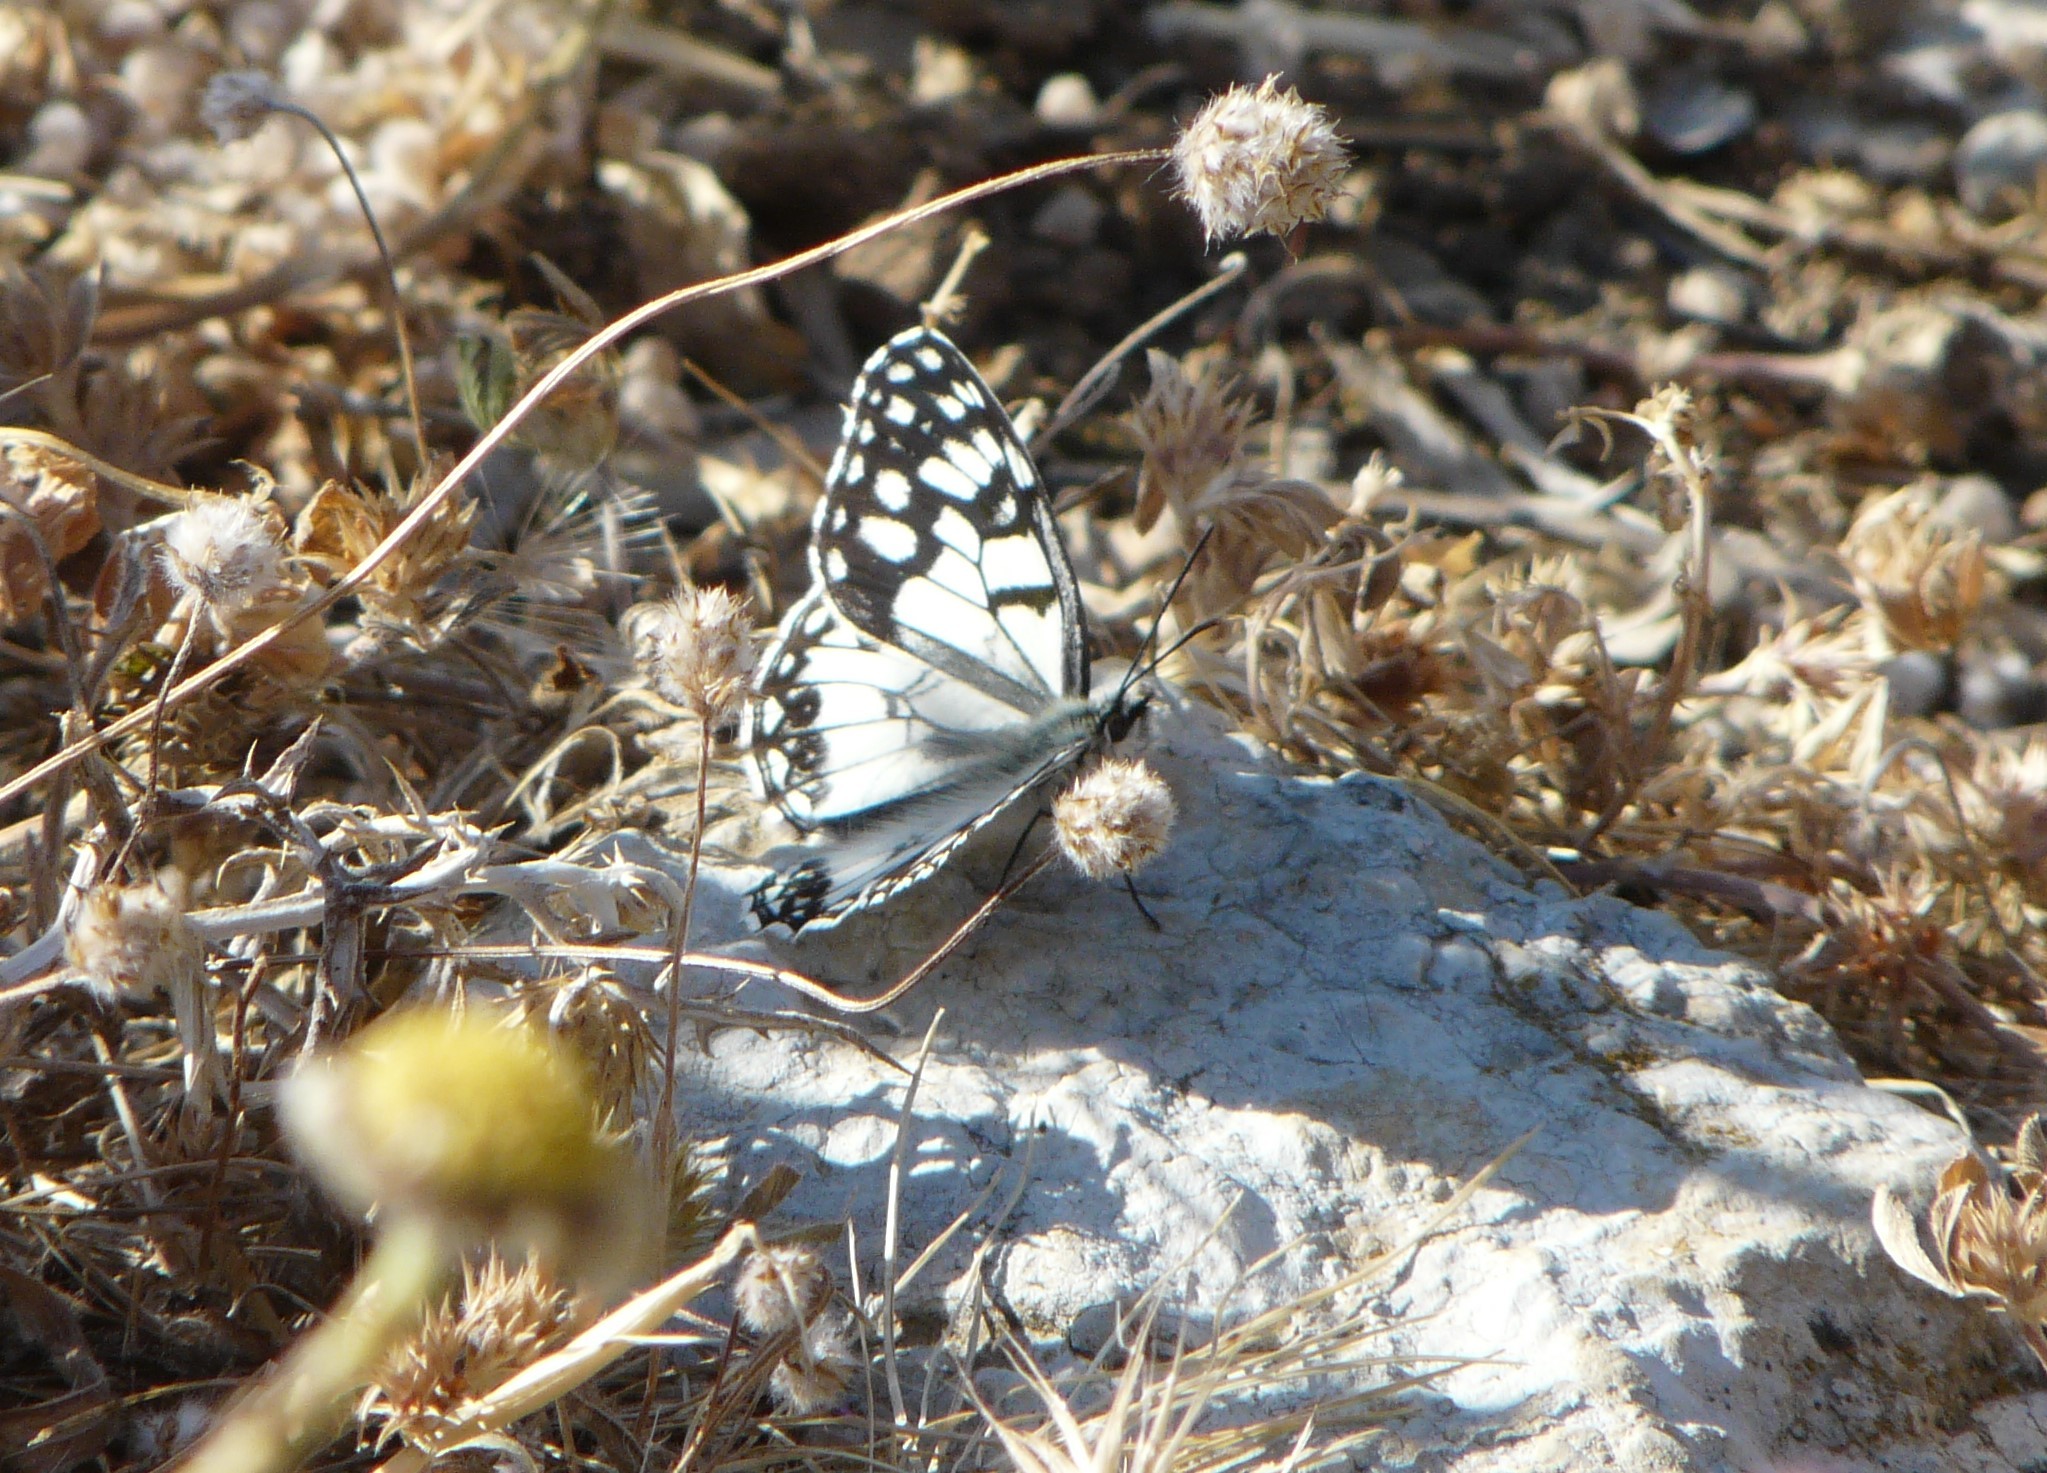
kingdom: Animalia
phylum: Arthropoda
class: Insecta
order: Lepidoptera
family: Nymphalidae
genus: Melanargia
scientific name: Melanargia ines
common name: Spanish marbled white
